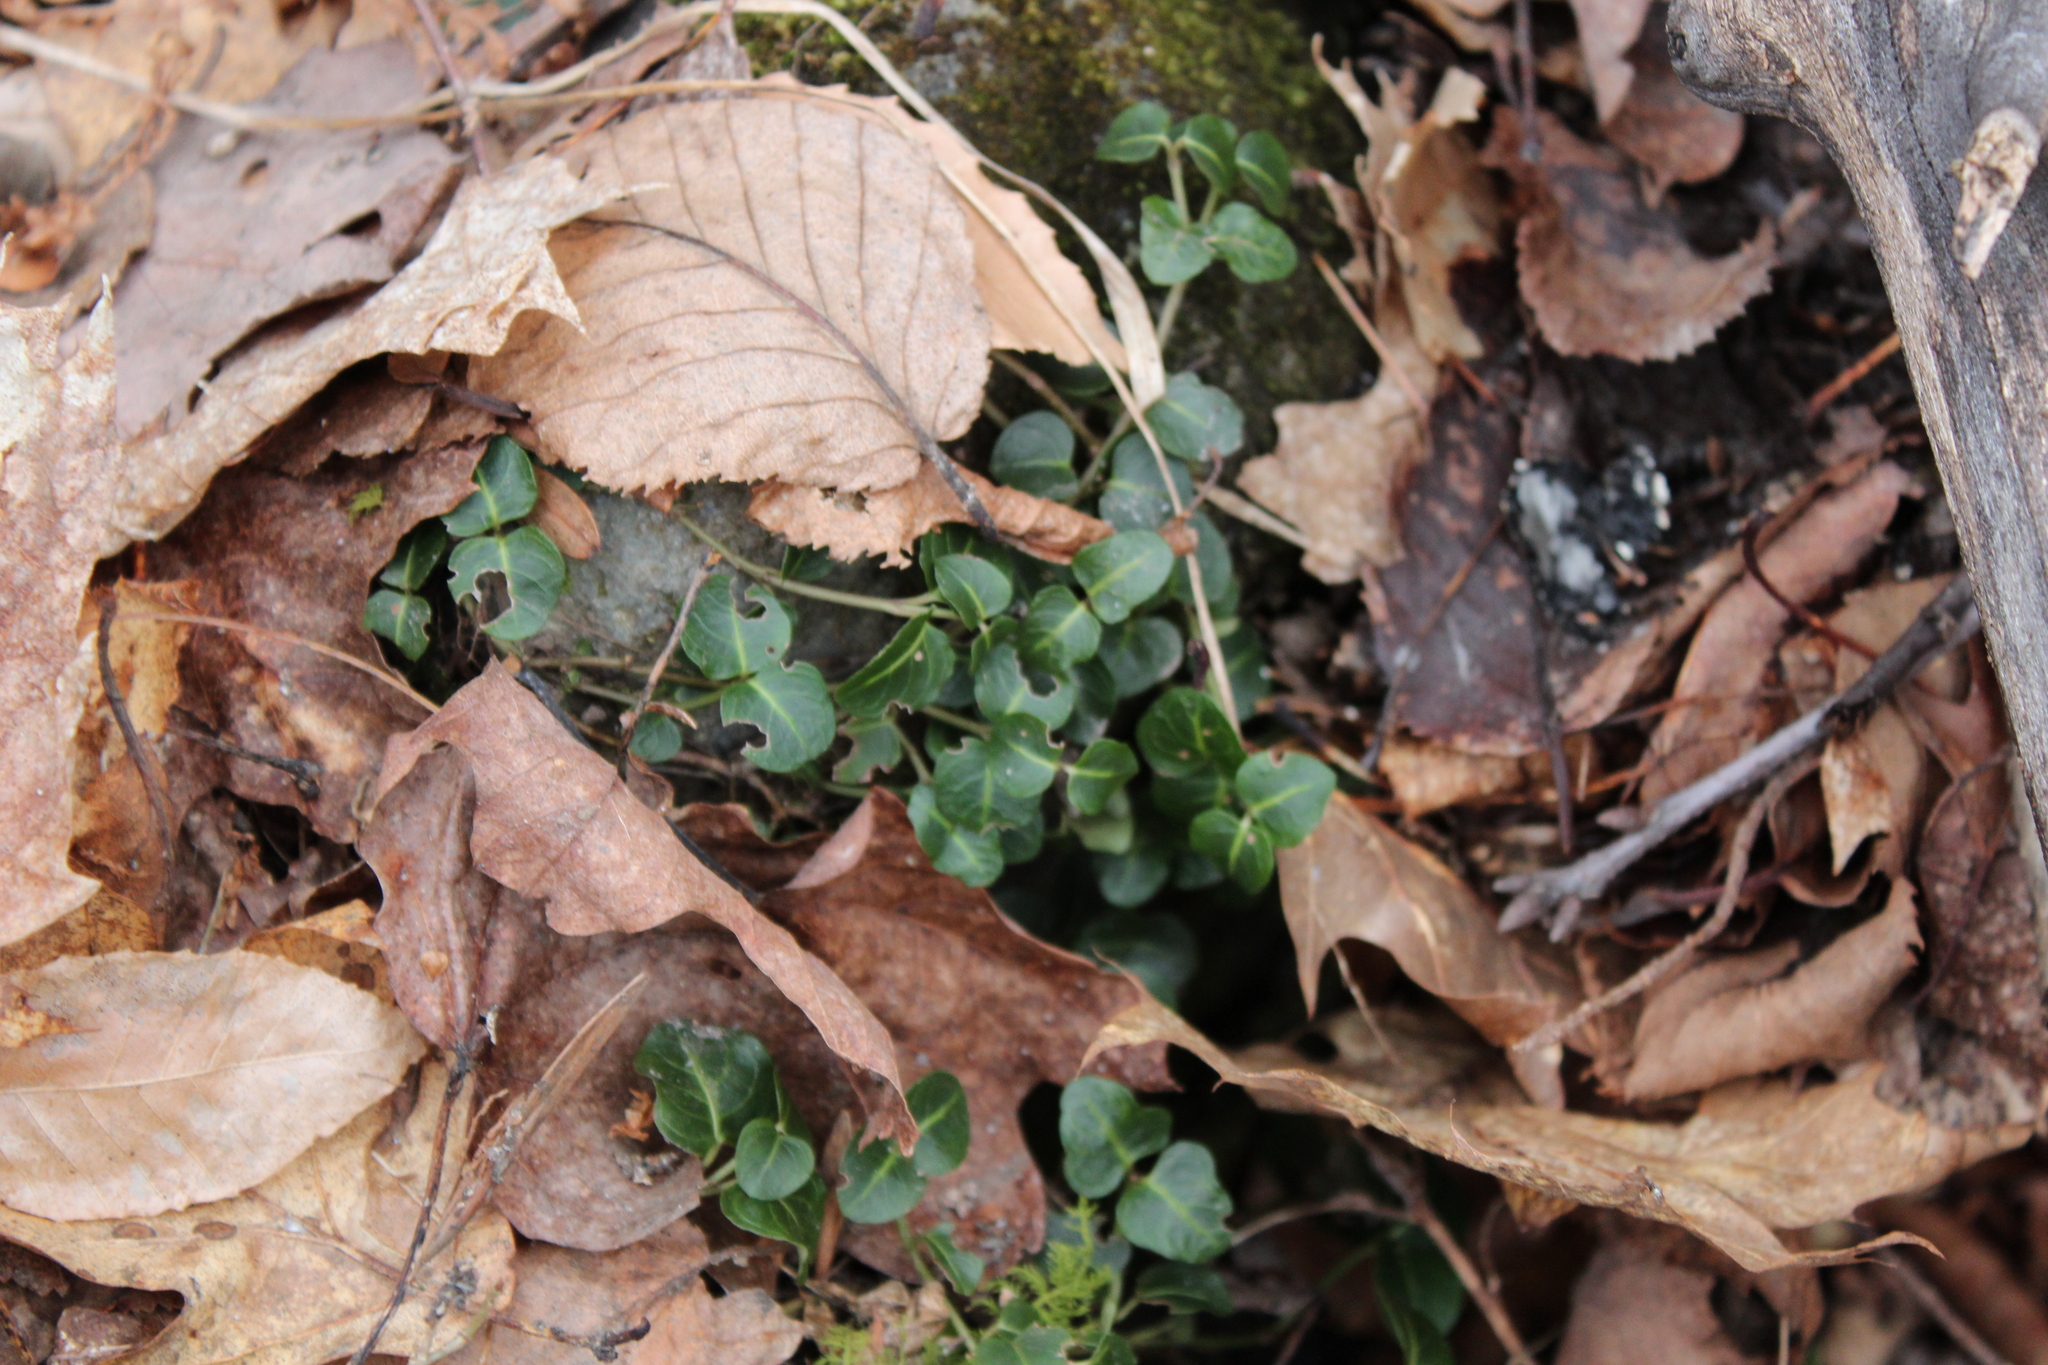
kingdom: Plantae
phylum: Tracheophyta
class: Magnoliopsida
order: Gentianales
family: Rubiaceae
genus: Mitchella
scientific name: Mitchella repens
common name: Partridge-berry
